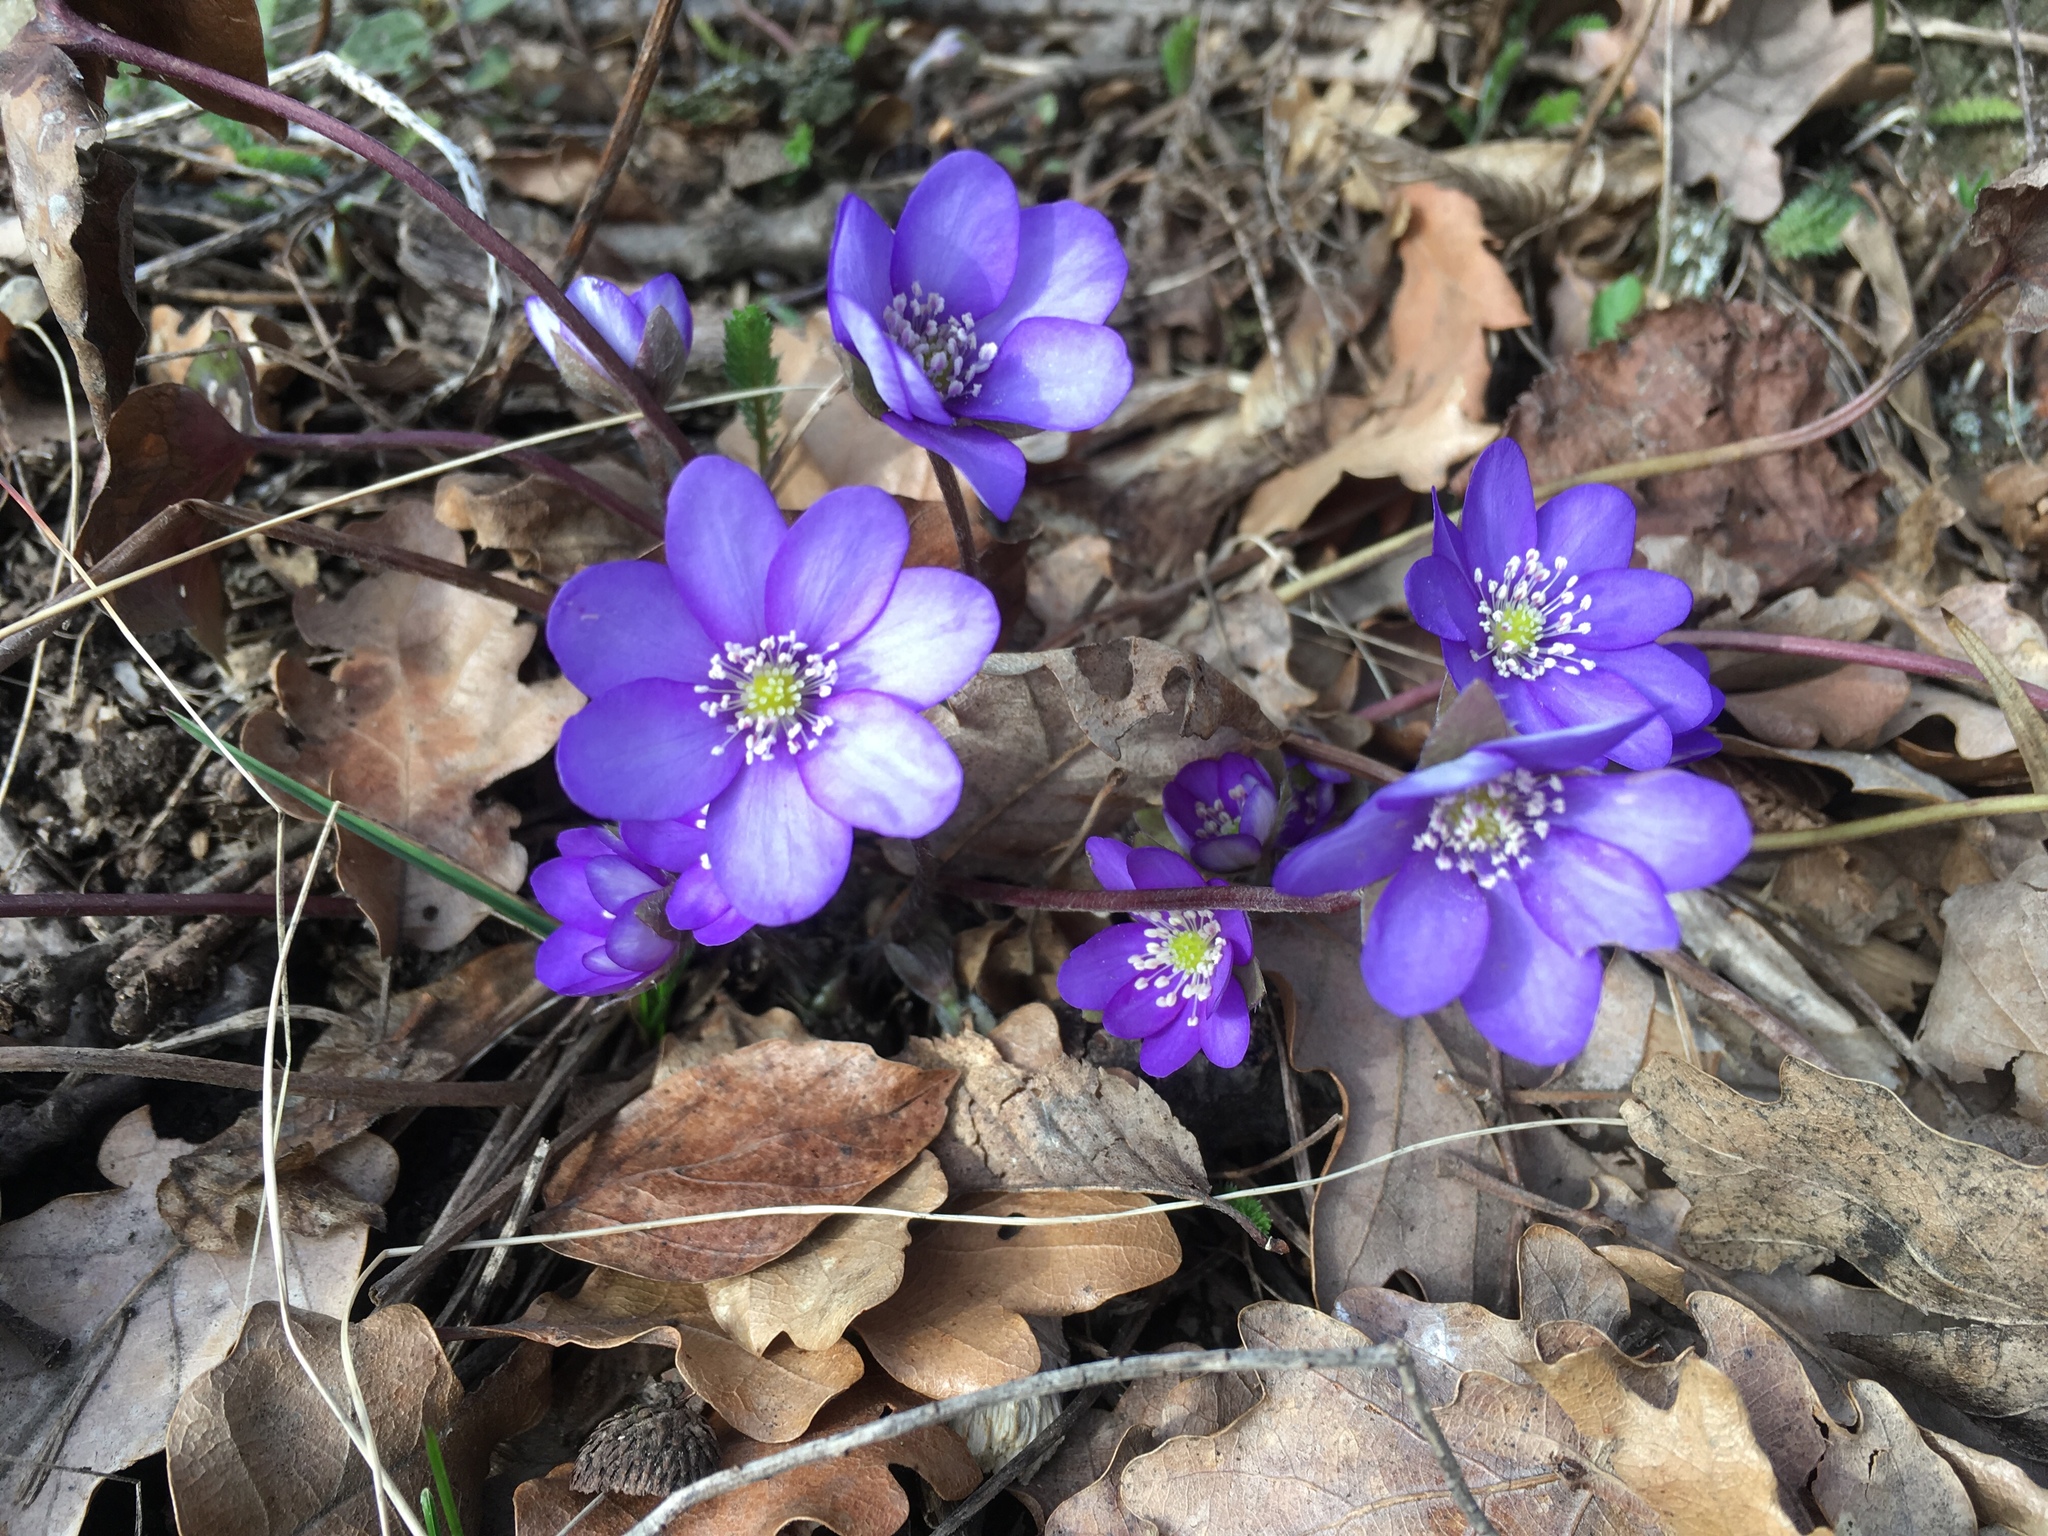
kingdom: Plantae
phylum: Tracheophyta
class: Magnoliopsida
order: Ranunculales
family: Ranunculaceae
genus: Hepatica
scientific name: Hepatica nobilis
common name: Liverleaf
